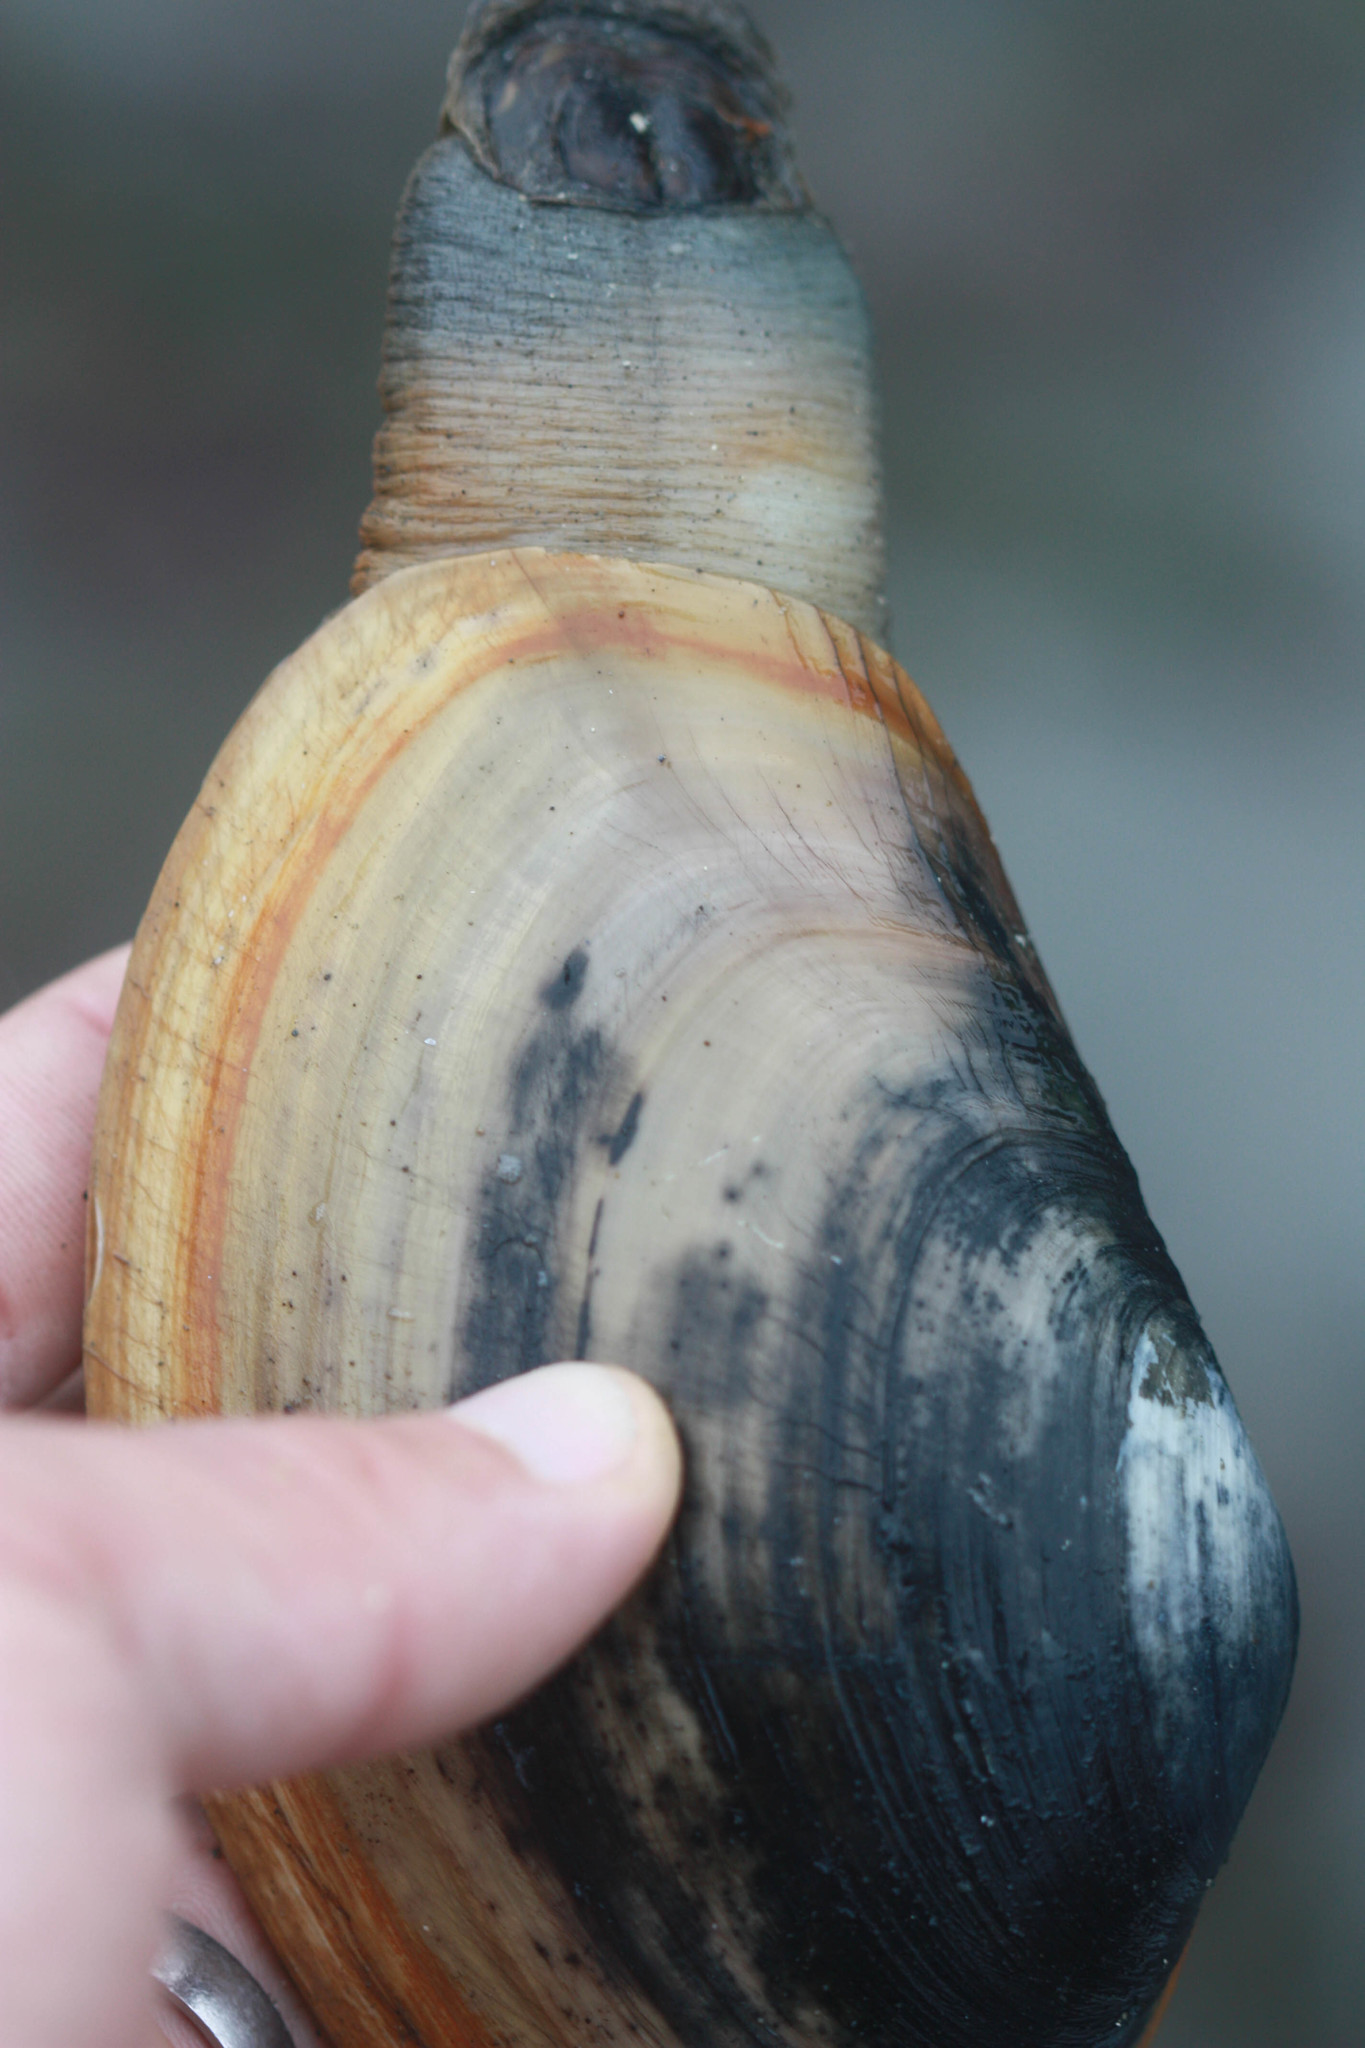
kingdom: Animalia
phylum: Mollusca
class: Bivalvia
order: Venerida
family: Mactridae
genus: Tresus
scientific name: Tresus nuttallii
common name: Pacific gaper clam
